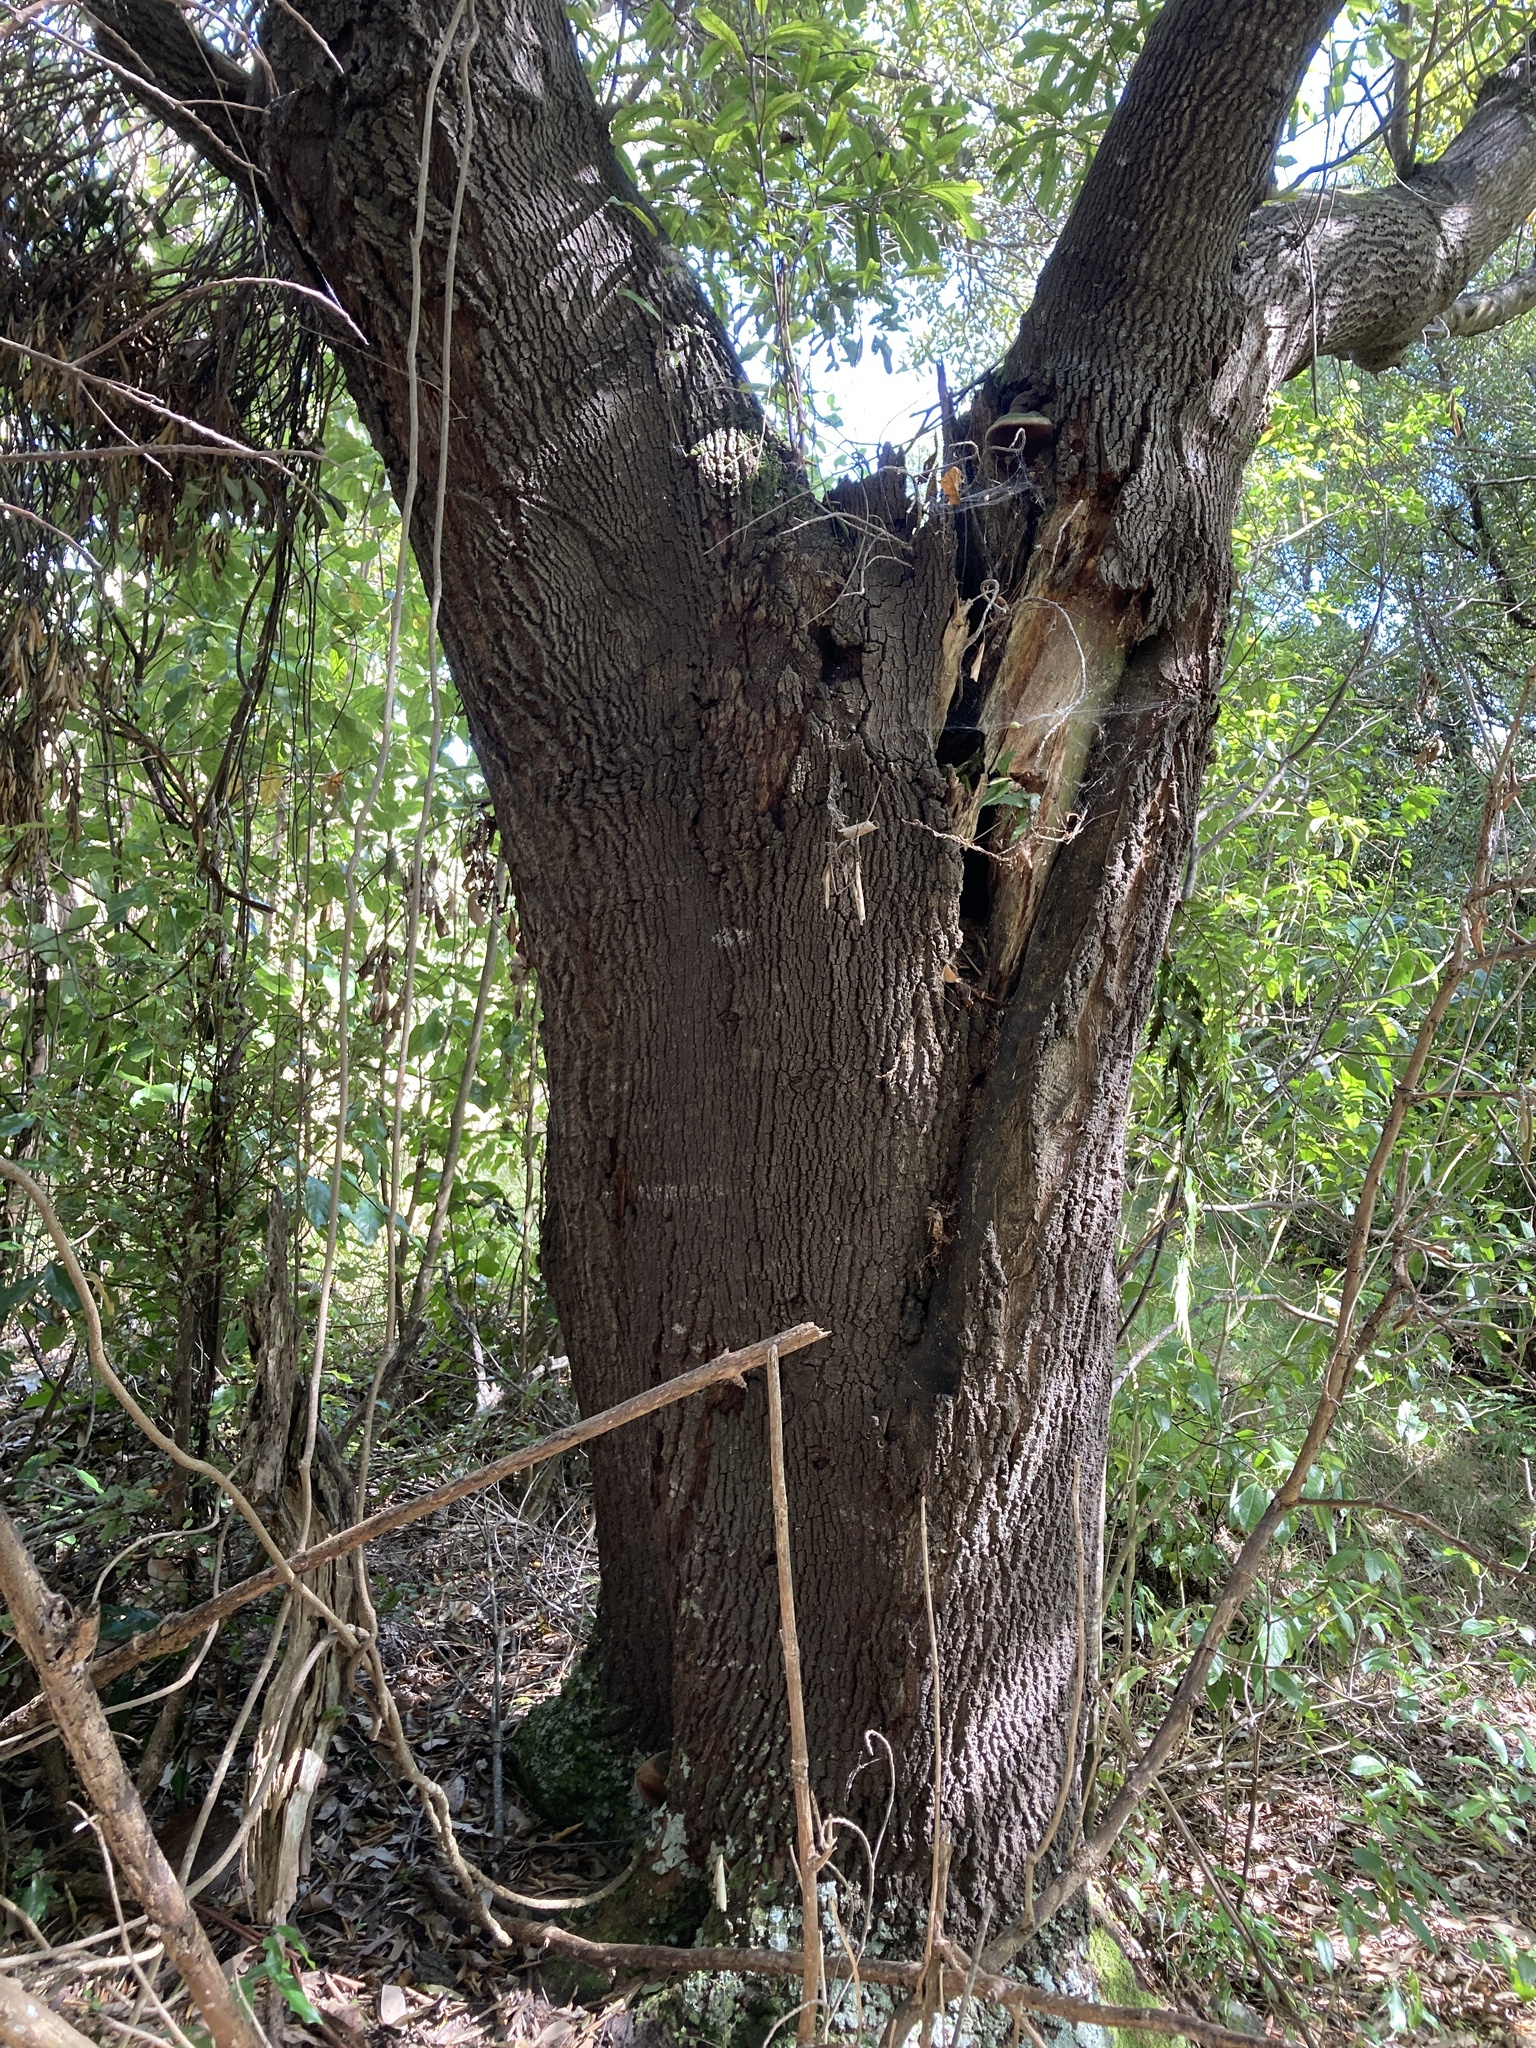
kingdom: Plantae
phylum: Tracheophyta
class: Magnoliopsida
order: Oxalidales
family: Elaeocarpaceae
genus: Elaeocarpus
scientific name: Elaeocarpus dentatus
